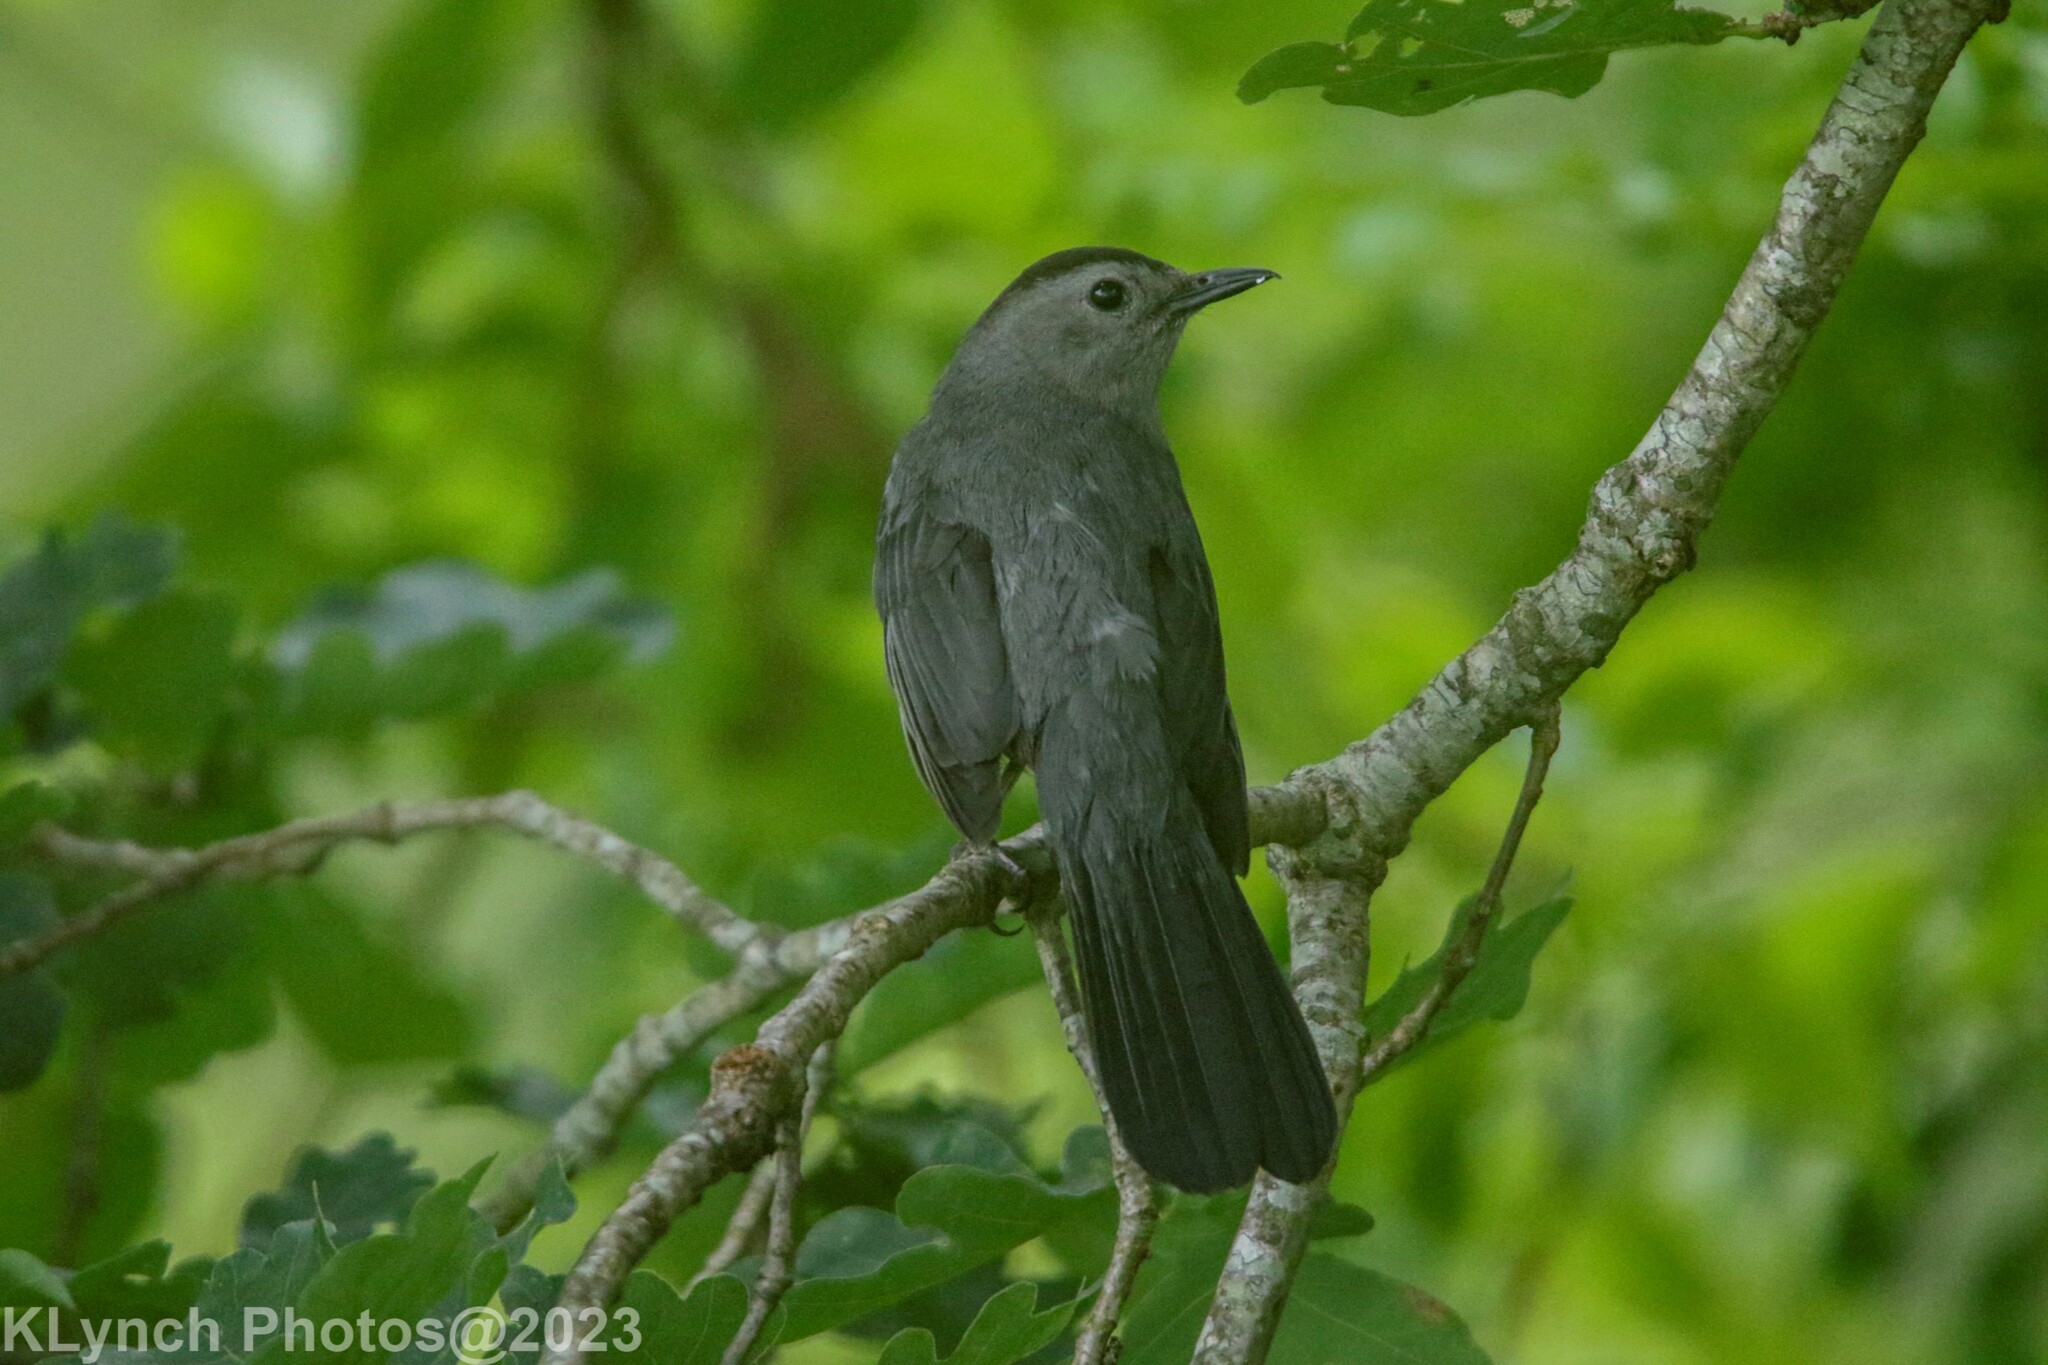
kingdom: Animalia
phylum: Chordata
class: Aves
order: Passeriformes
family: Mimidae
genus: Dumetella
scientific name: Dumetella carolinensis
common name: Gray catbird
